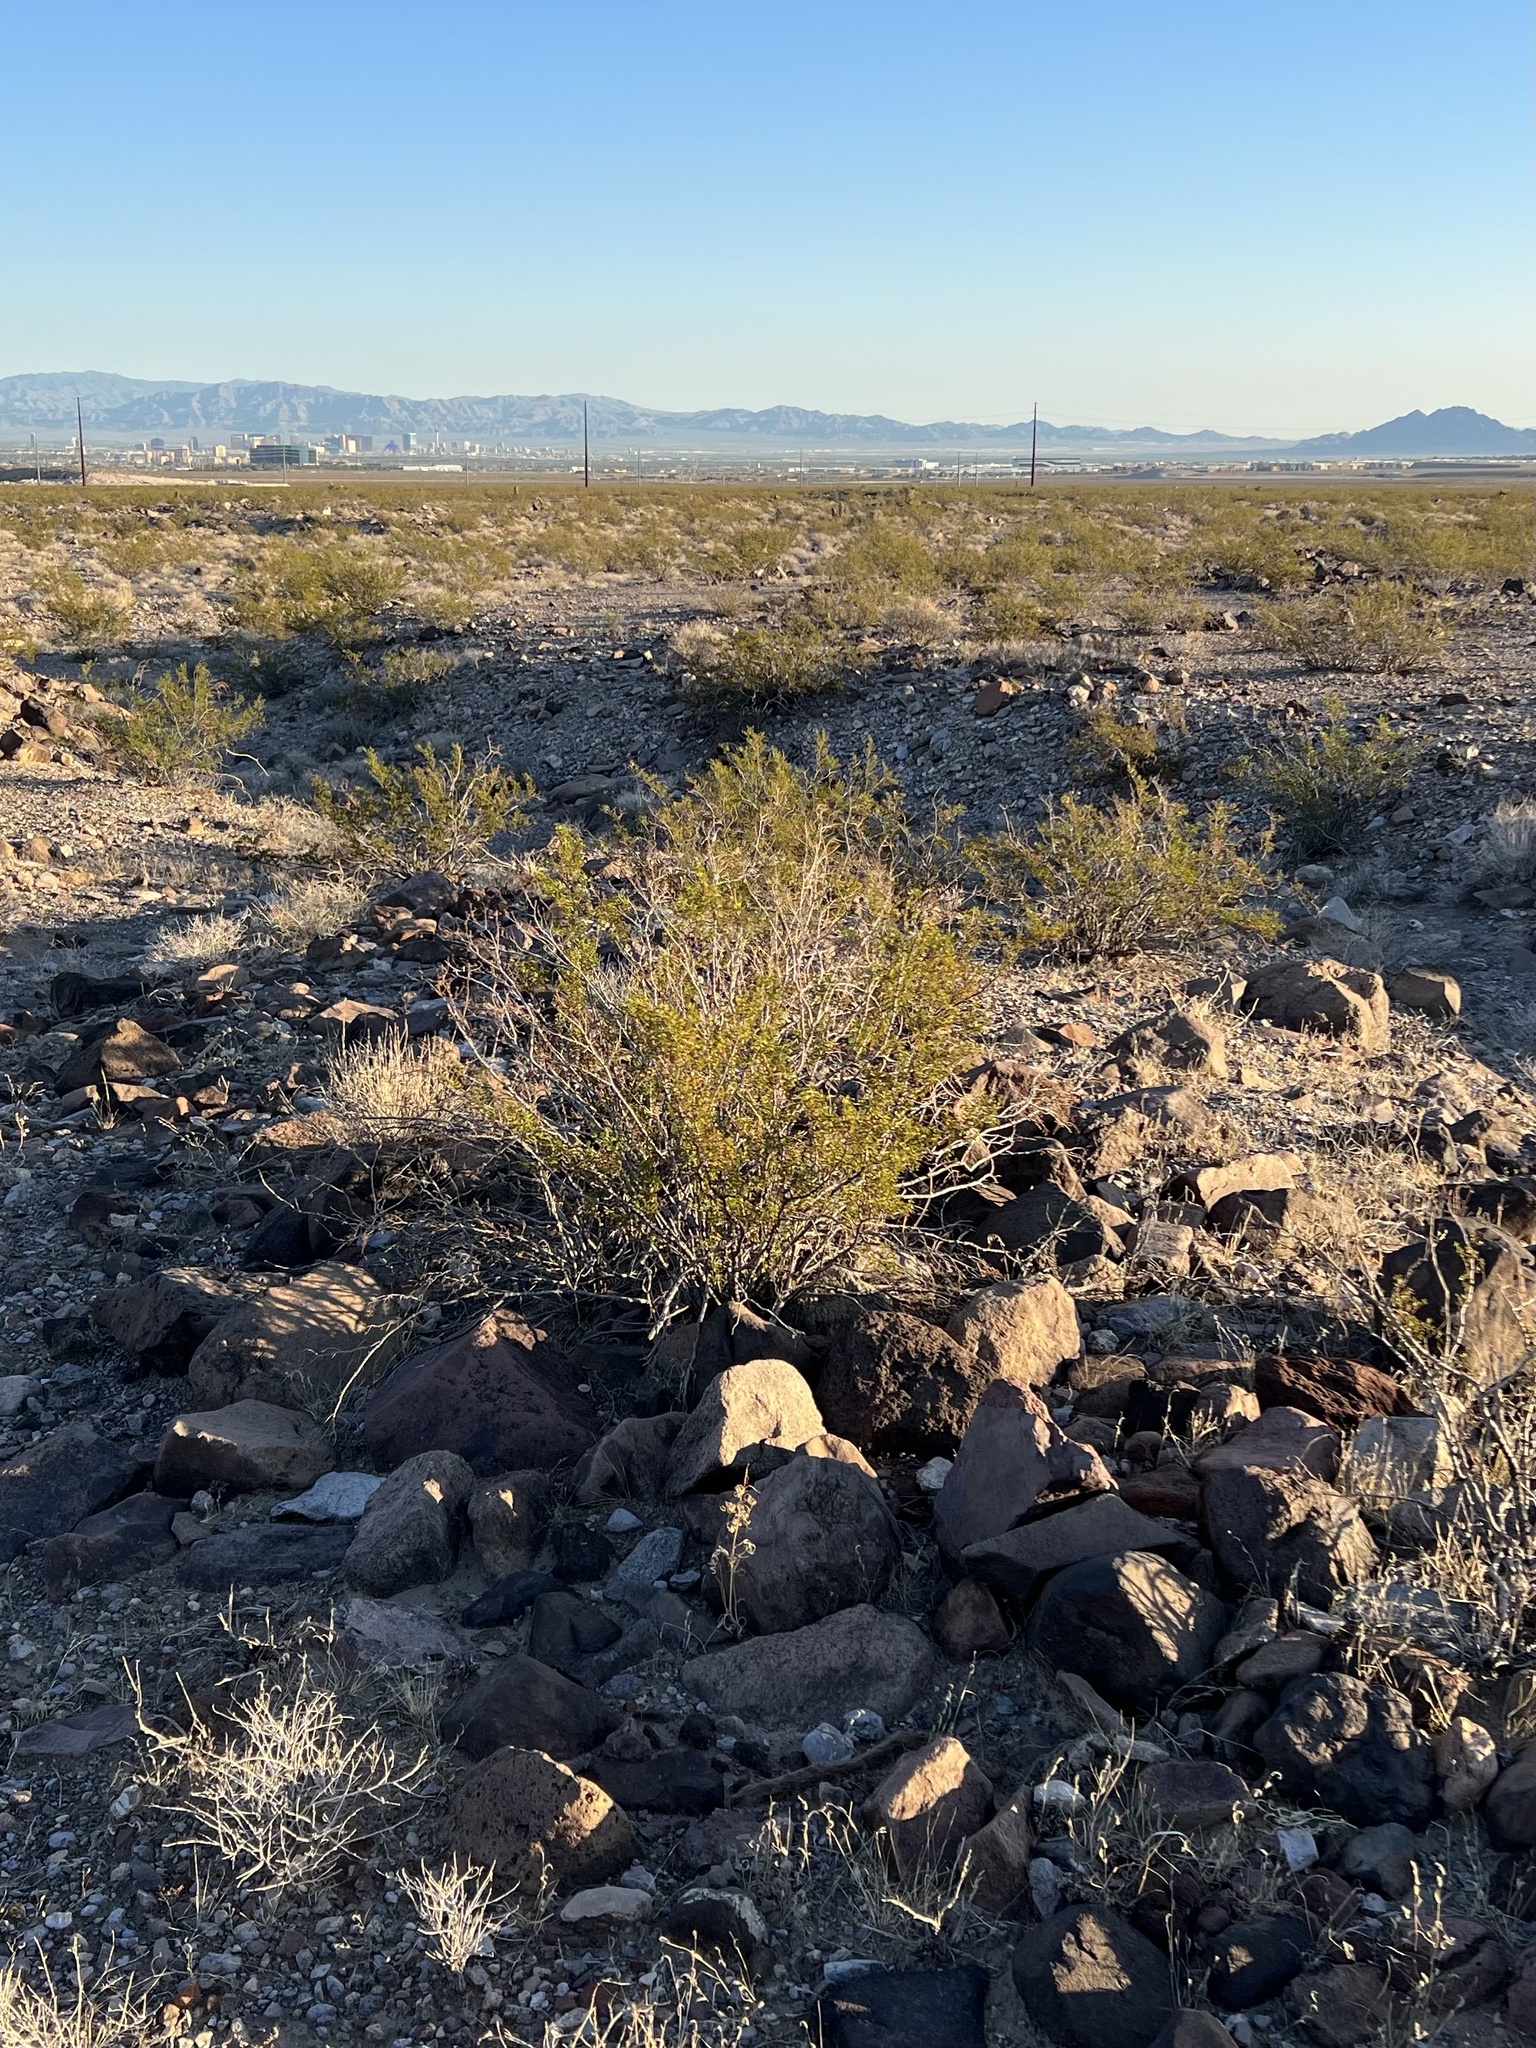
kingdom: Plantae
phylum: Tracheophyta
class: Magnoliopsida
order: Zygophyllales
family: Zygophyllaceae
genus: Larrea
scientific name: Larrea tridentata
